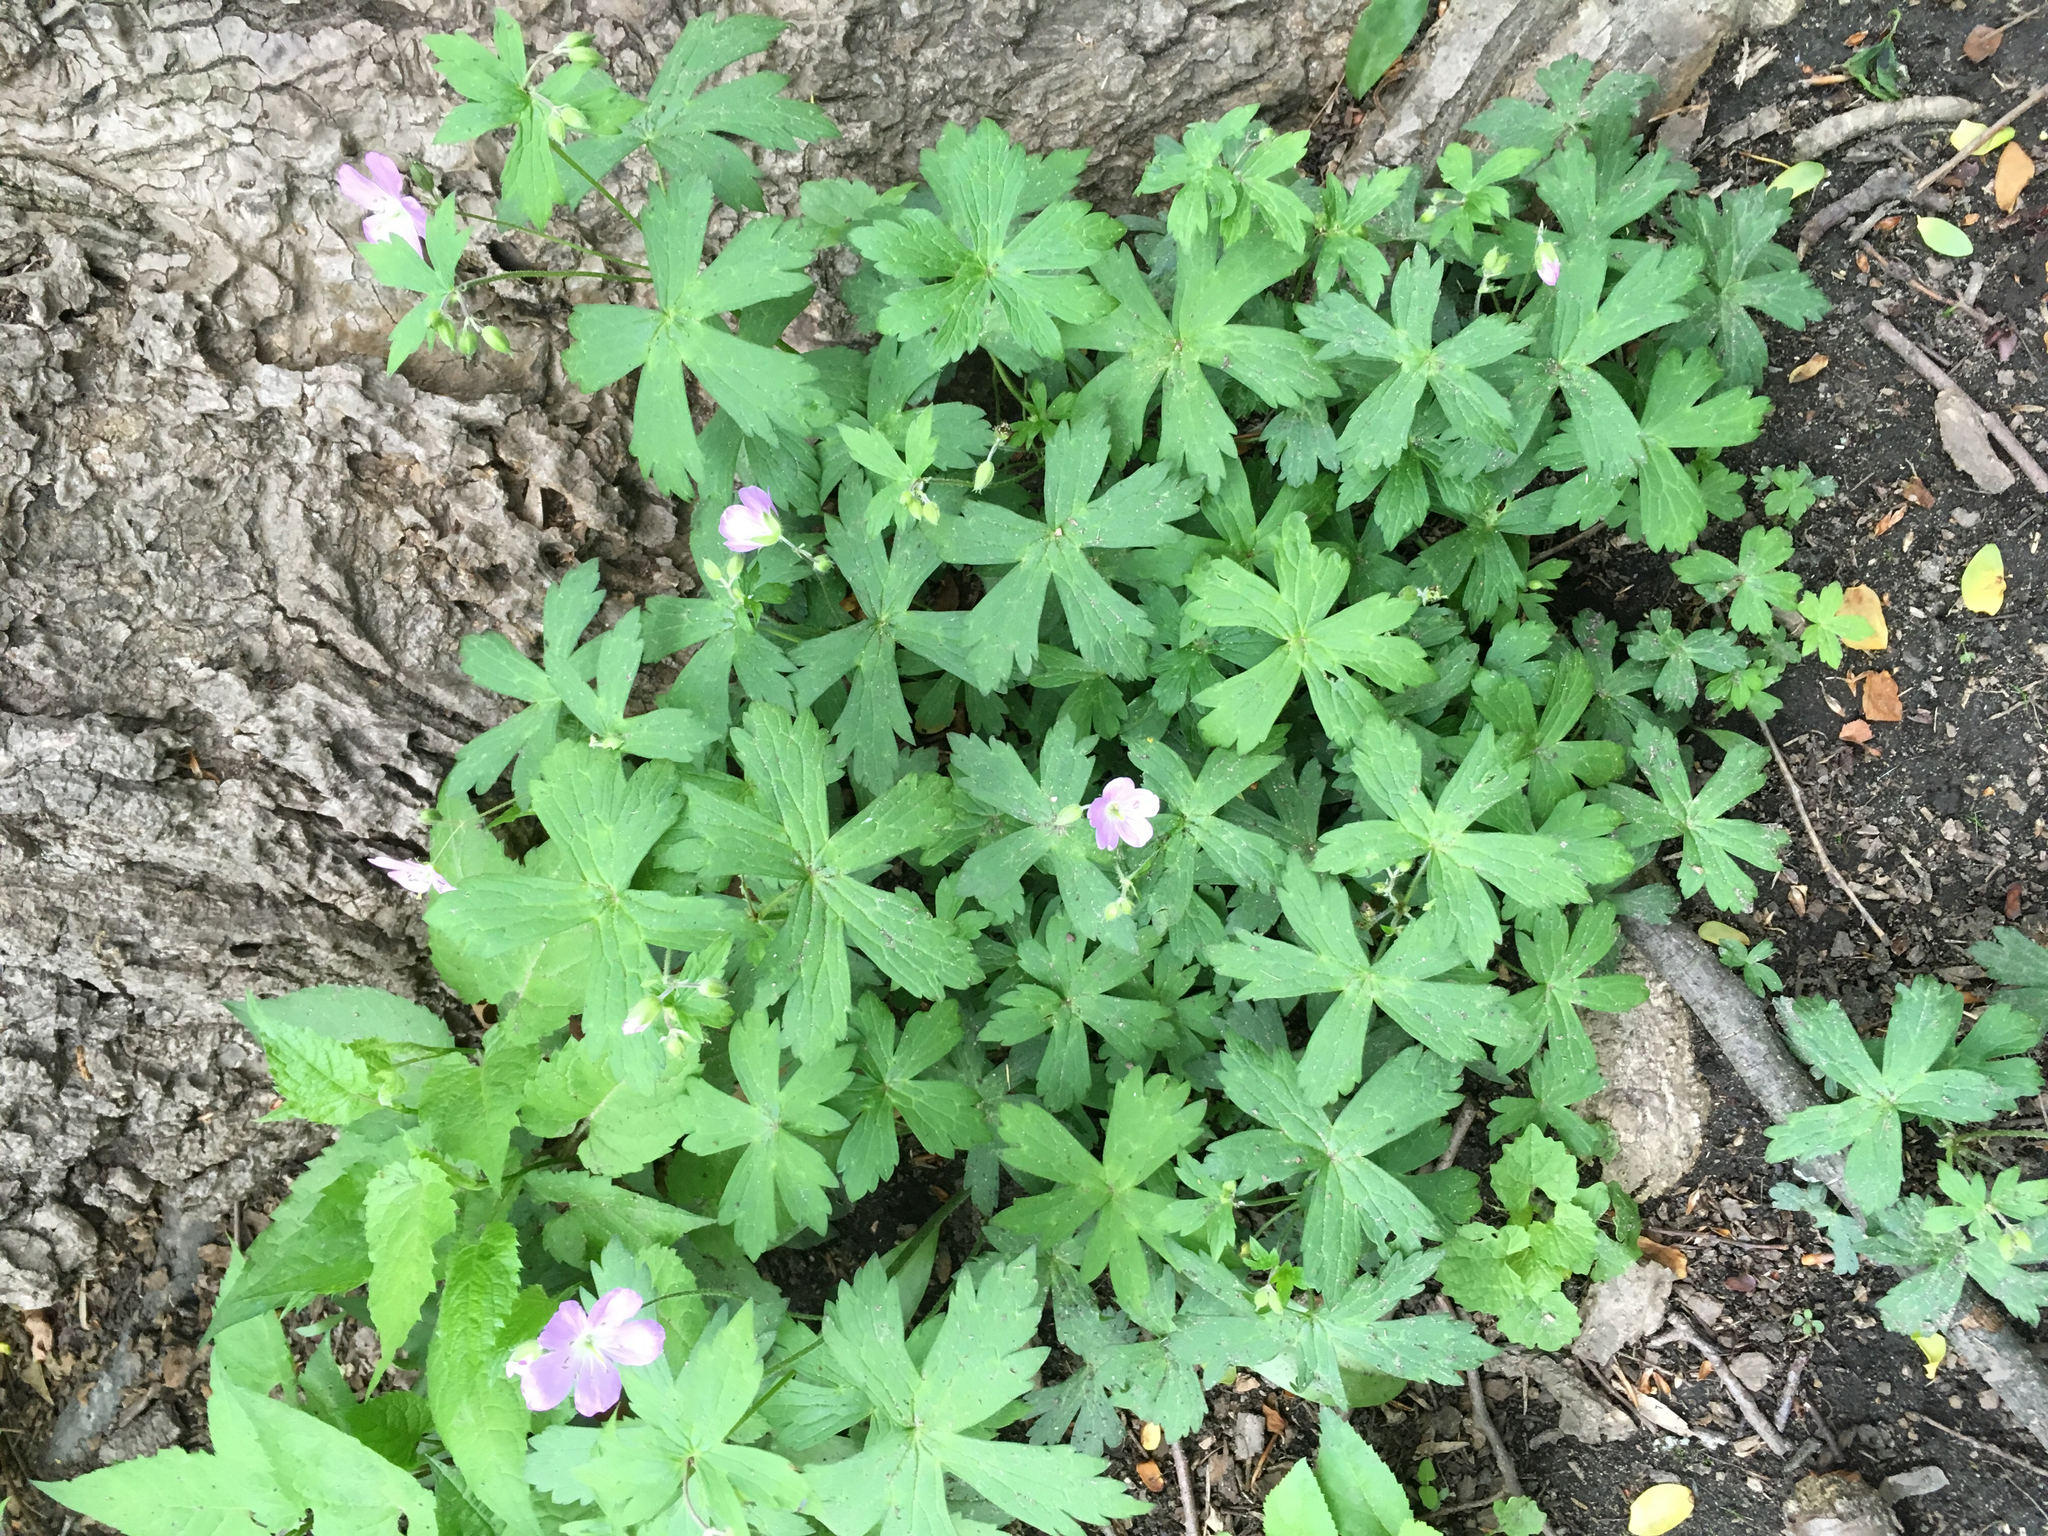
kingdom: Plantae
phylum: Tracheophyta
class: Magnoliopsida
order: Geraniales
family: Geraniaceae
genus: Geranium
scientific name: Geranium maculatum
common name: Spotted geranium
